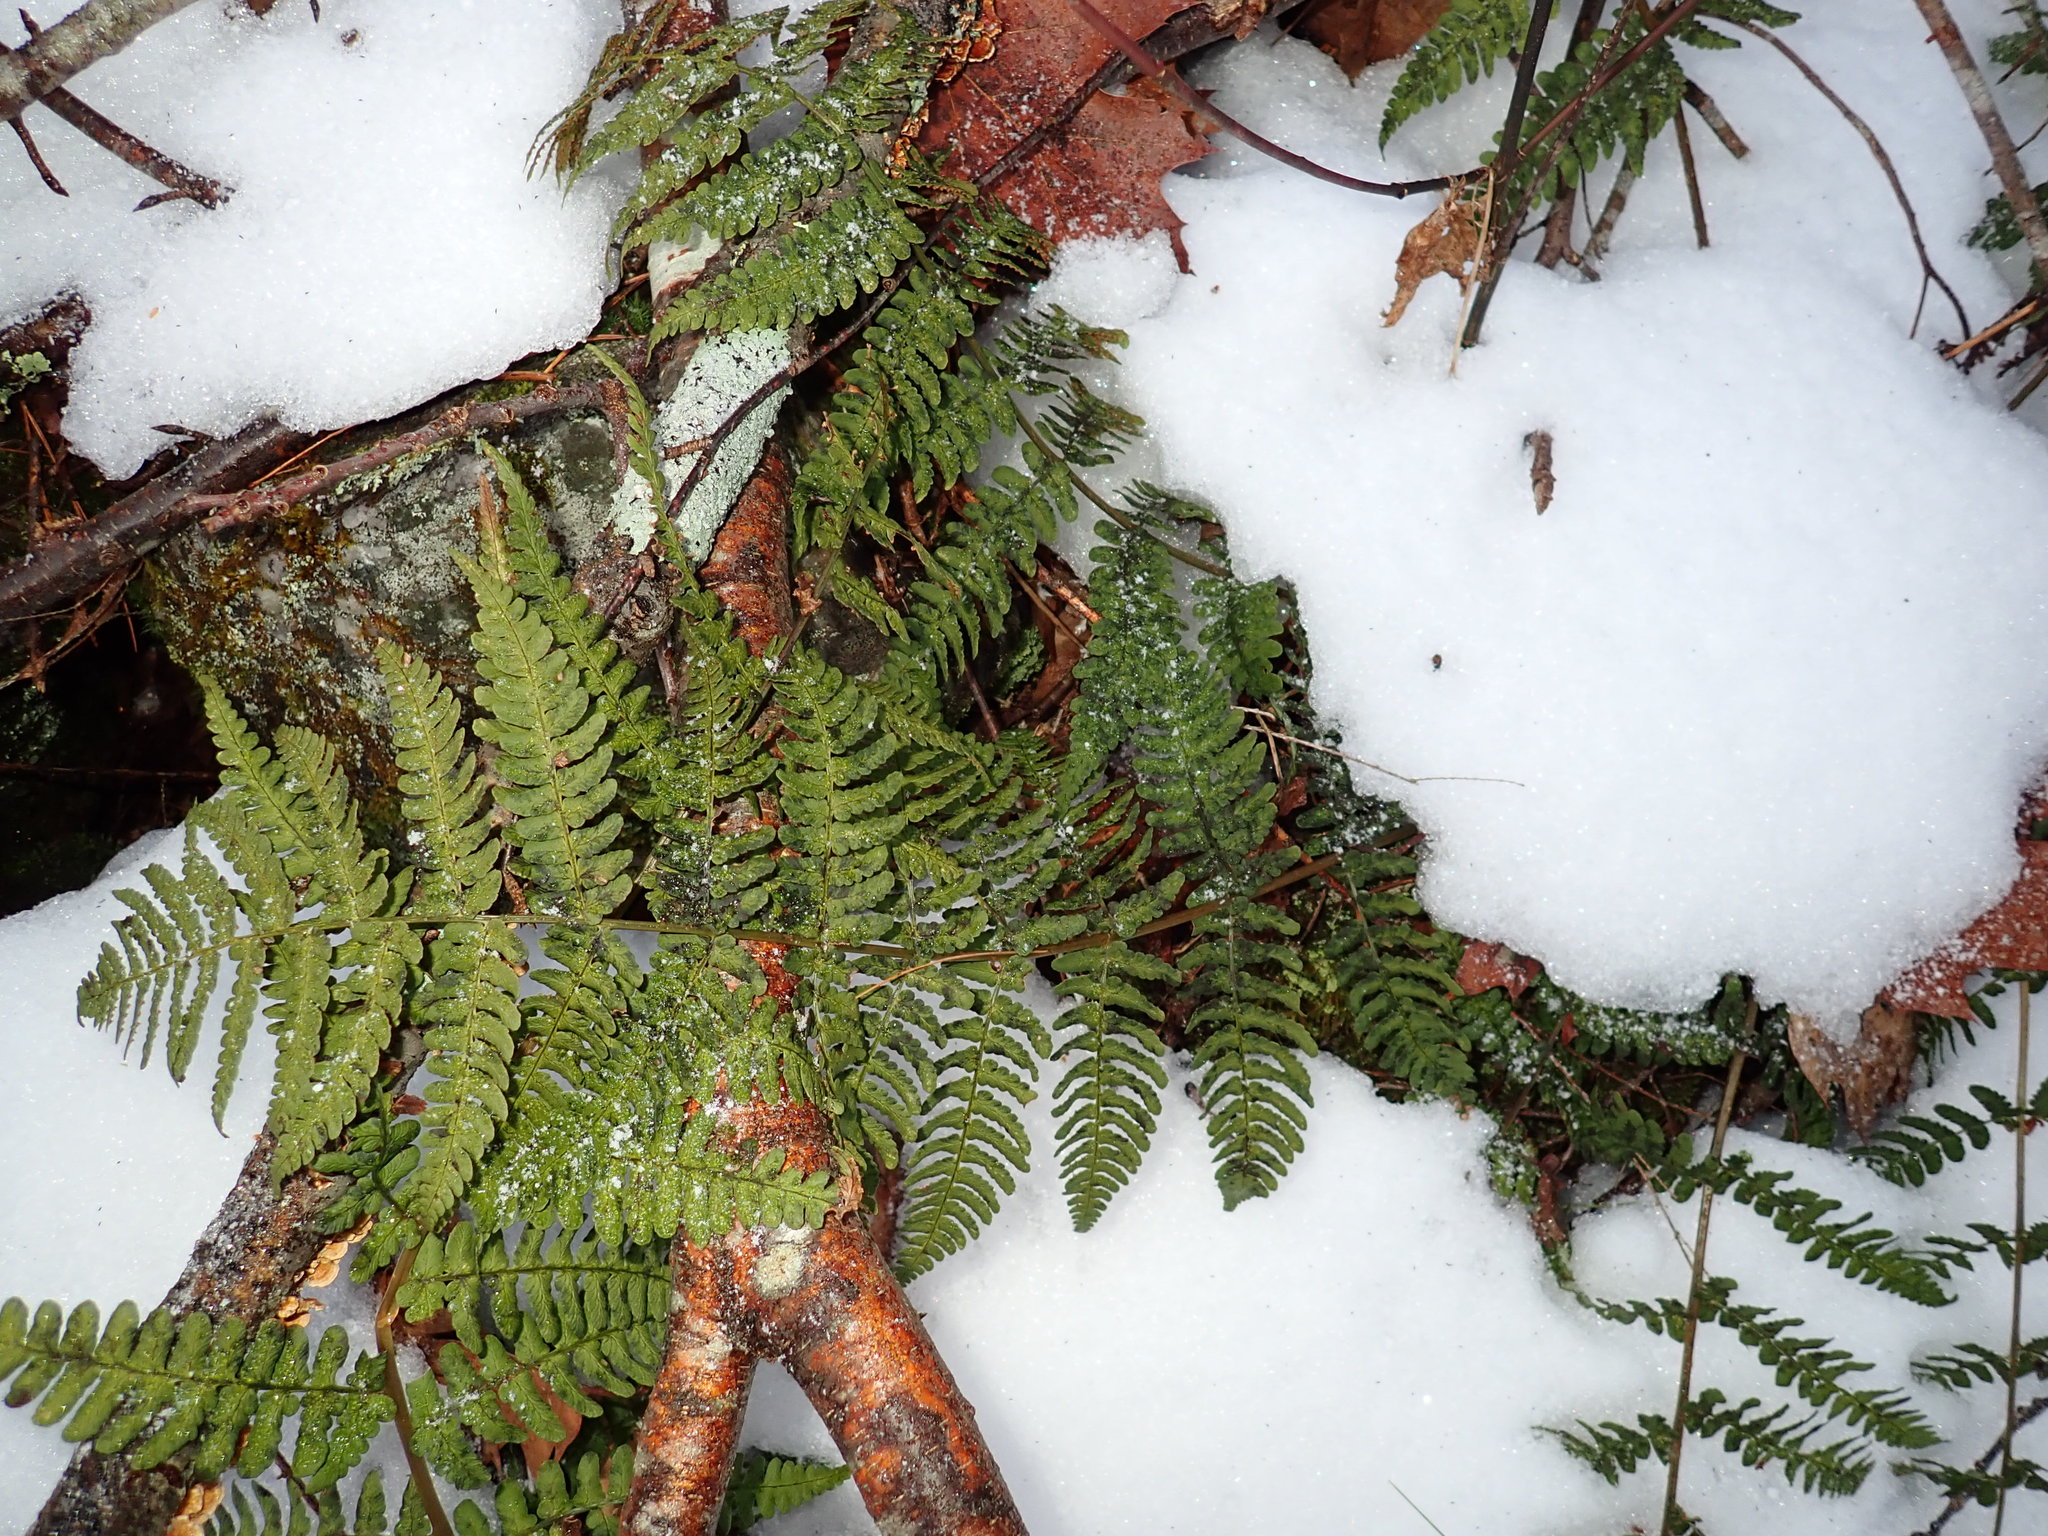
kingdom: Plantae
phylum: Tracheophyta
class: Polypodiopsida
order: Polypodiales
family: Dryopteridaceae
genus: Dryopteris
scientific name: Dryopteris marginalis
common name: Marginal wood fern
